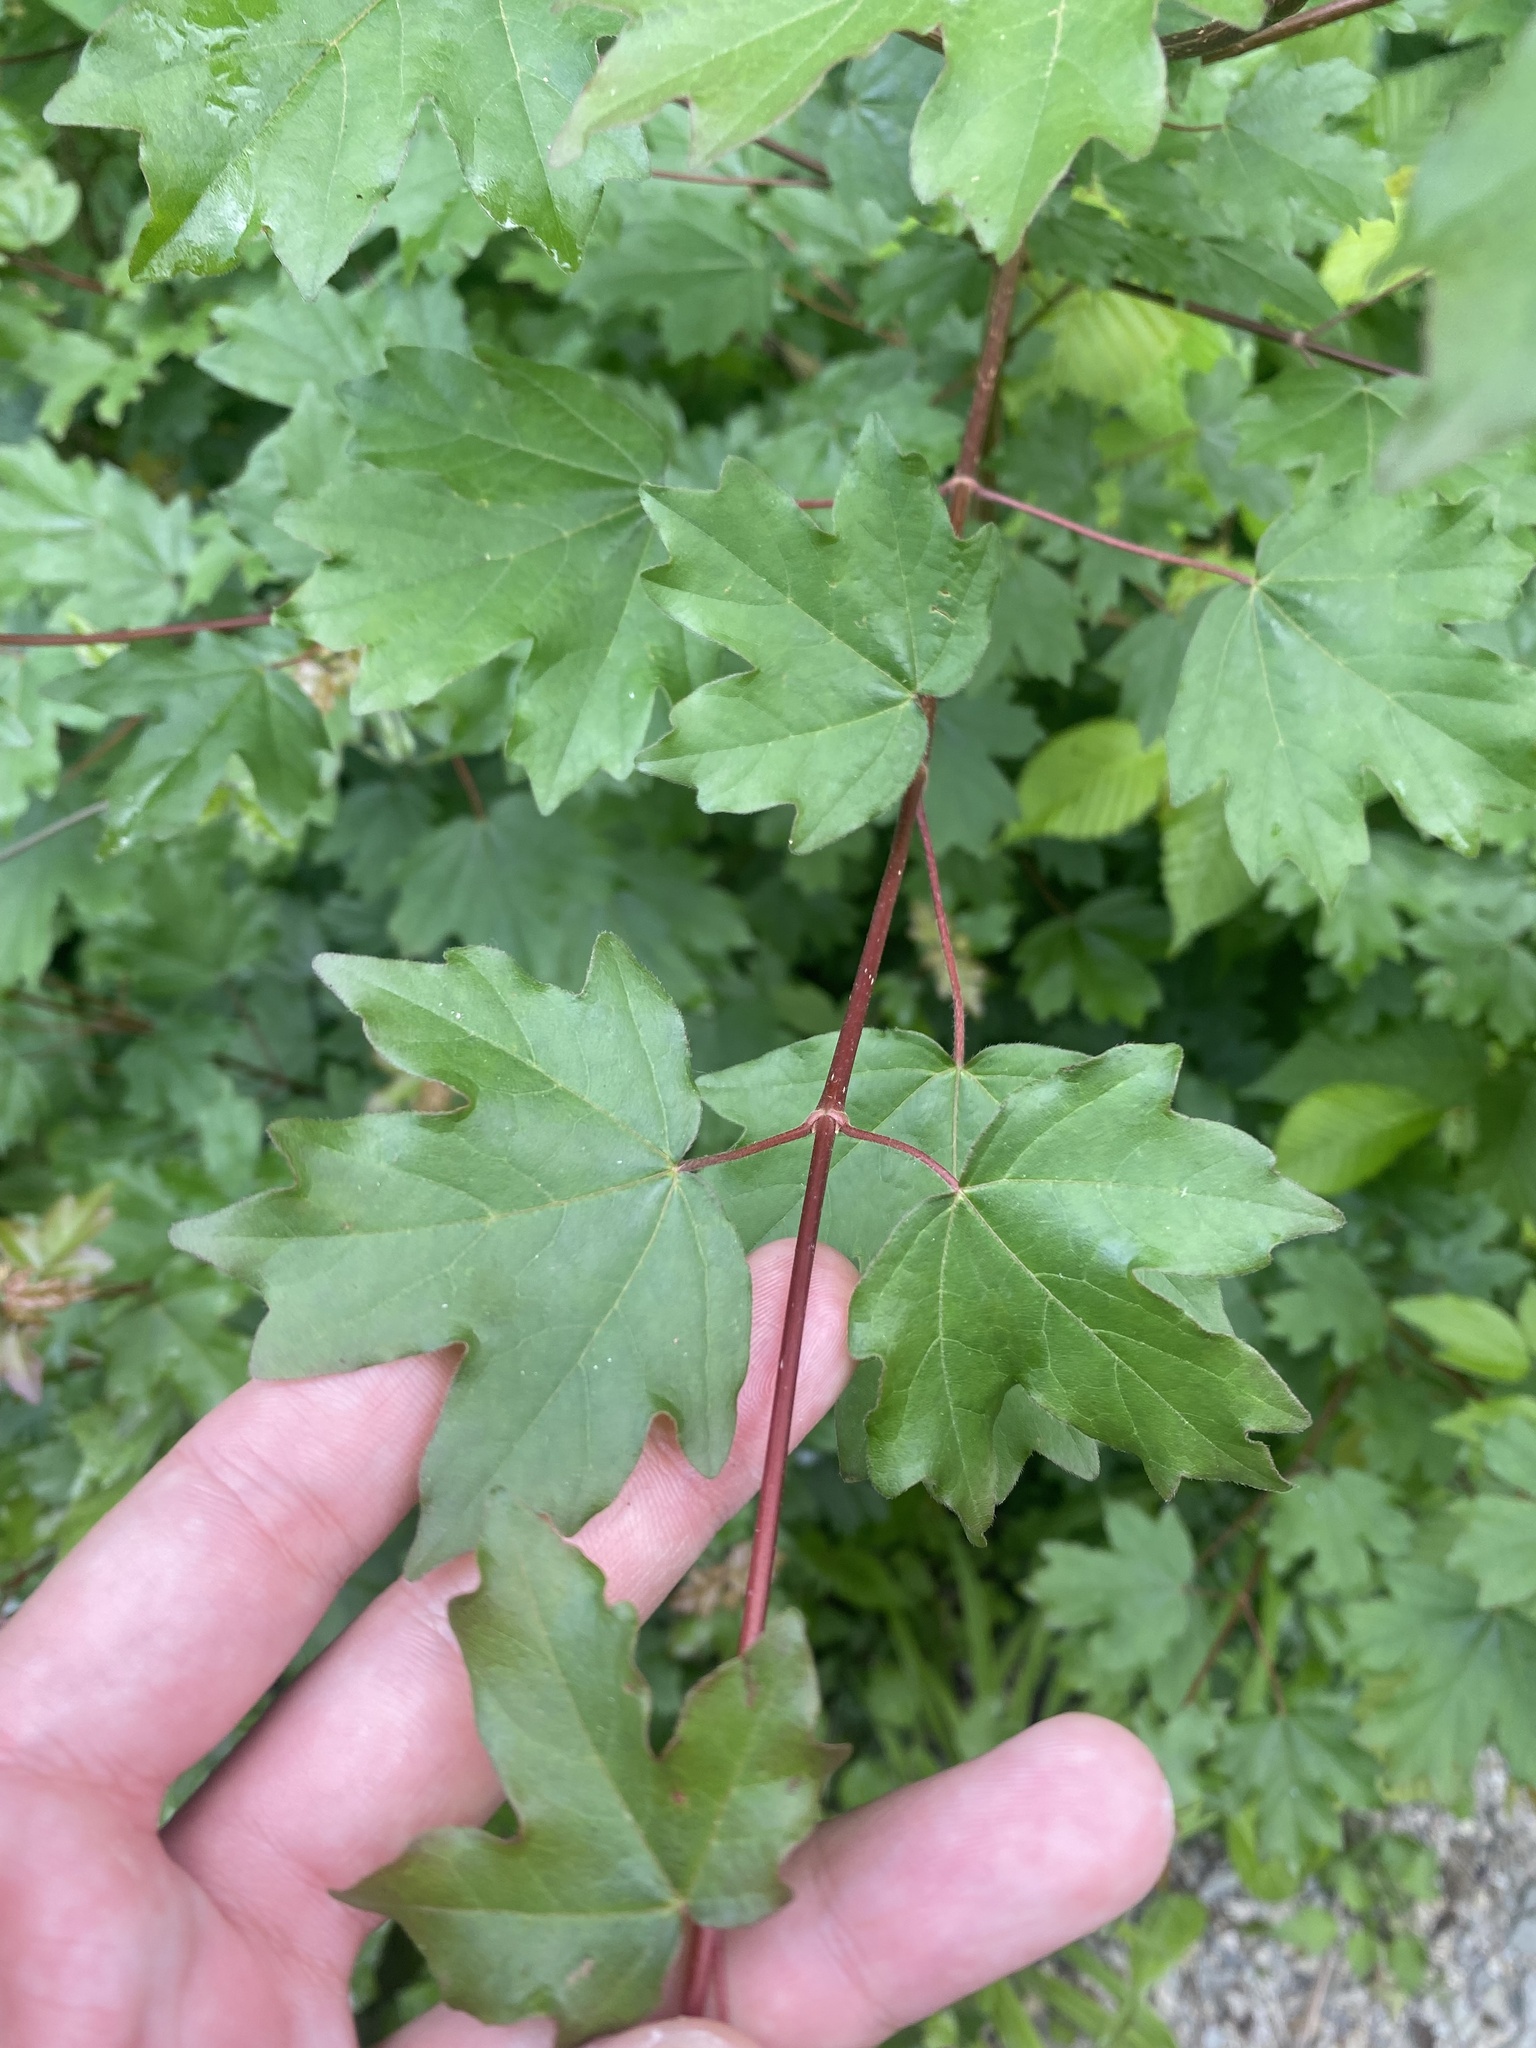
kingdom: Plantae
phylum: Tracheophyta
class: Magnoliopsida
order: Sapindales
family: Sapindaceae
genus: Acer
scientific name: Acer campestre
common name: Field maple
